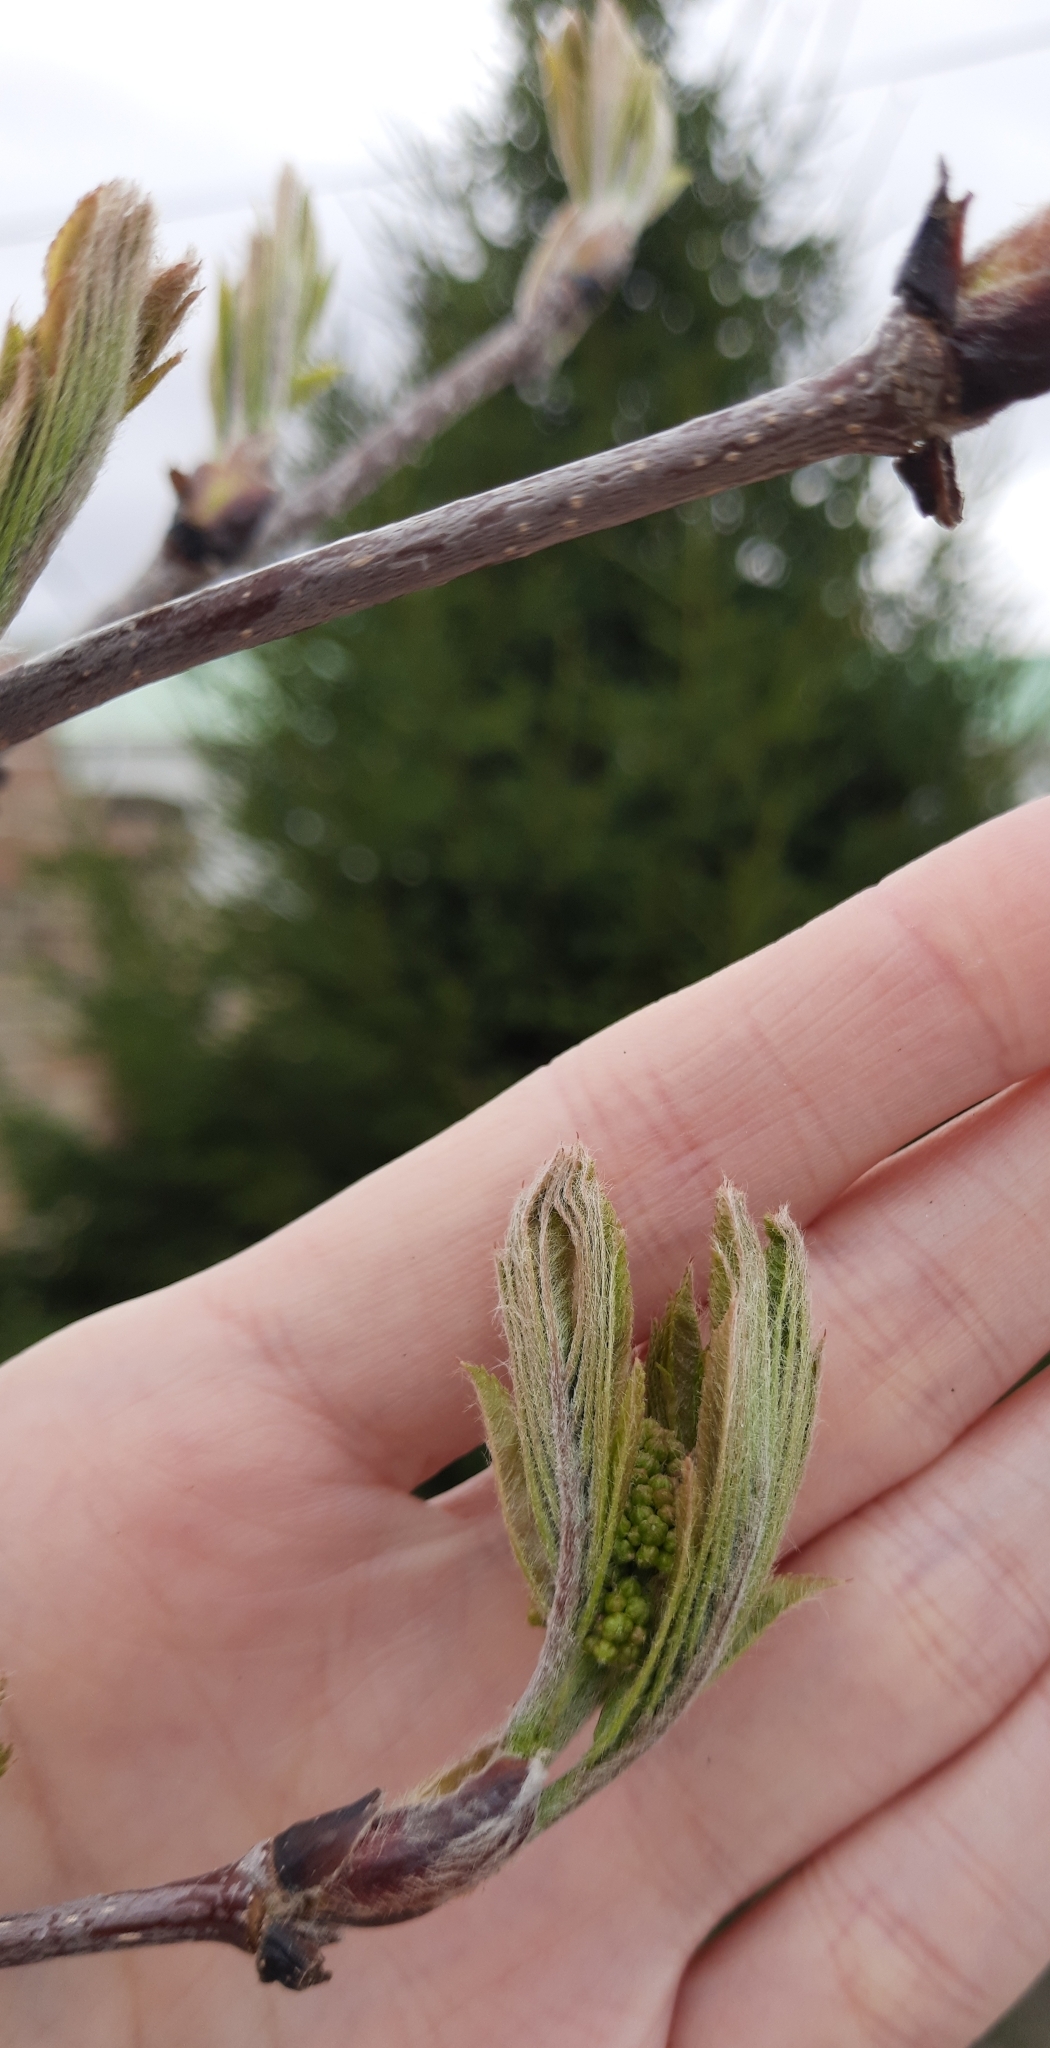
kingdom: Plantae
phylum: Tracheophyta
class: Magnoliopsida
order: Rosales
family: Rosaceae
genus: Sorbus
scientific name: Sorbus aucuparia
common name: Rowan
